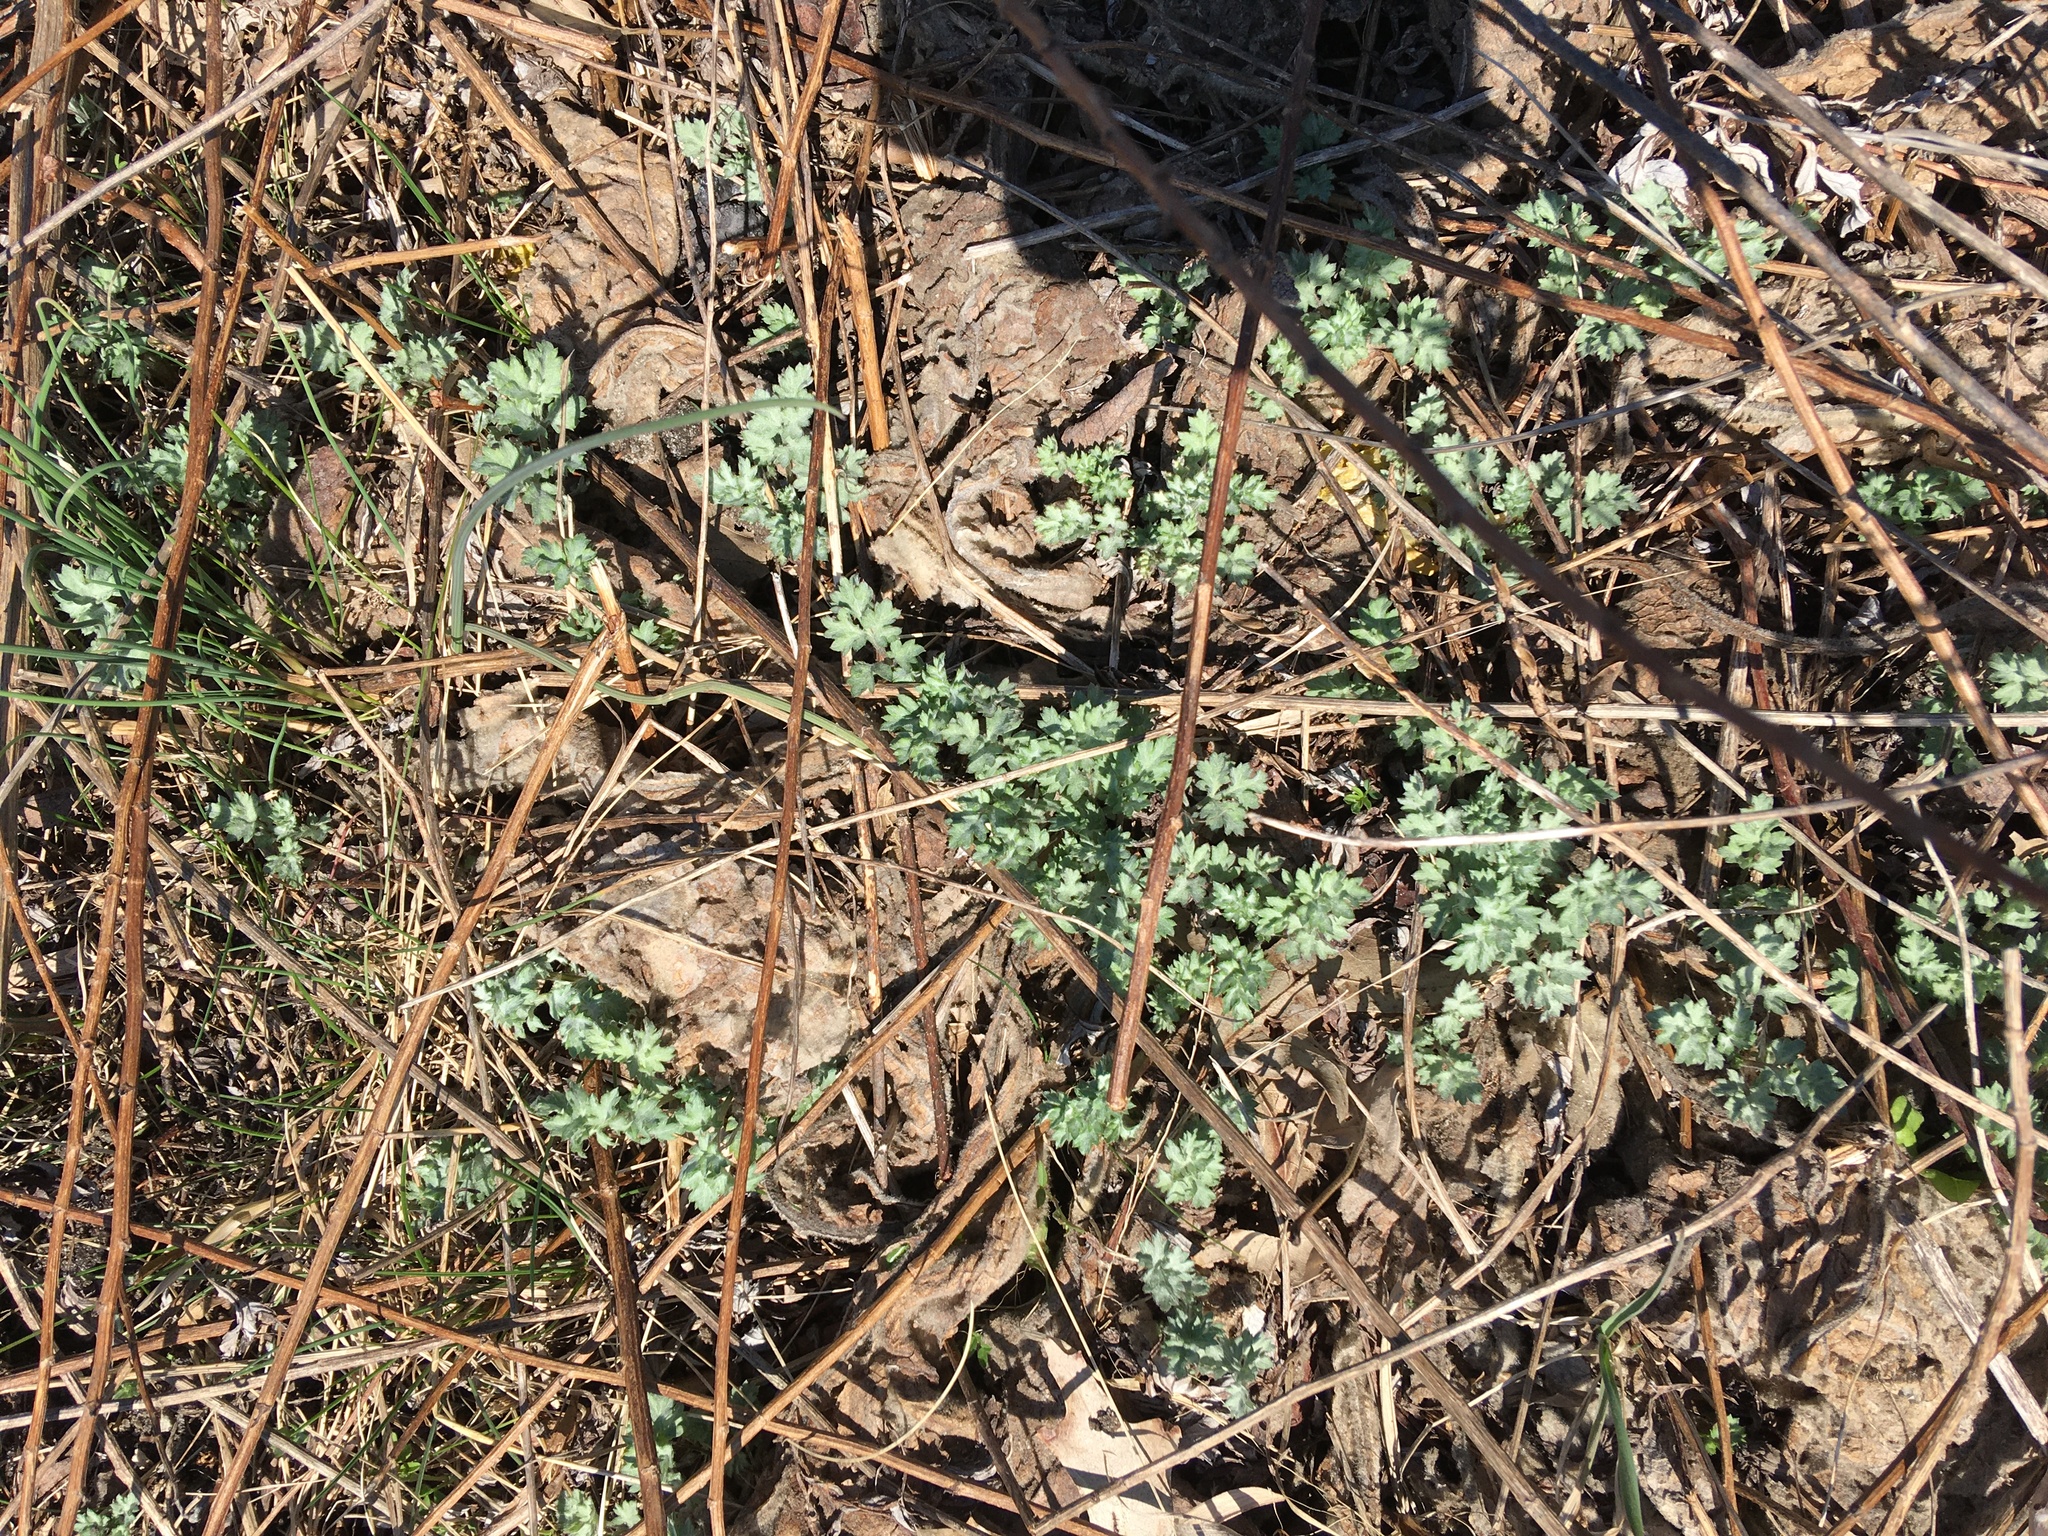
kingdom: Plantae
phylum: Tracheophyta
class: Magnoliopsida
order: Asterales
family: Asteraceae
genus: Artemisia
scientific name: Artemisia vulgaris
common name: Mugwort
